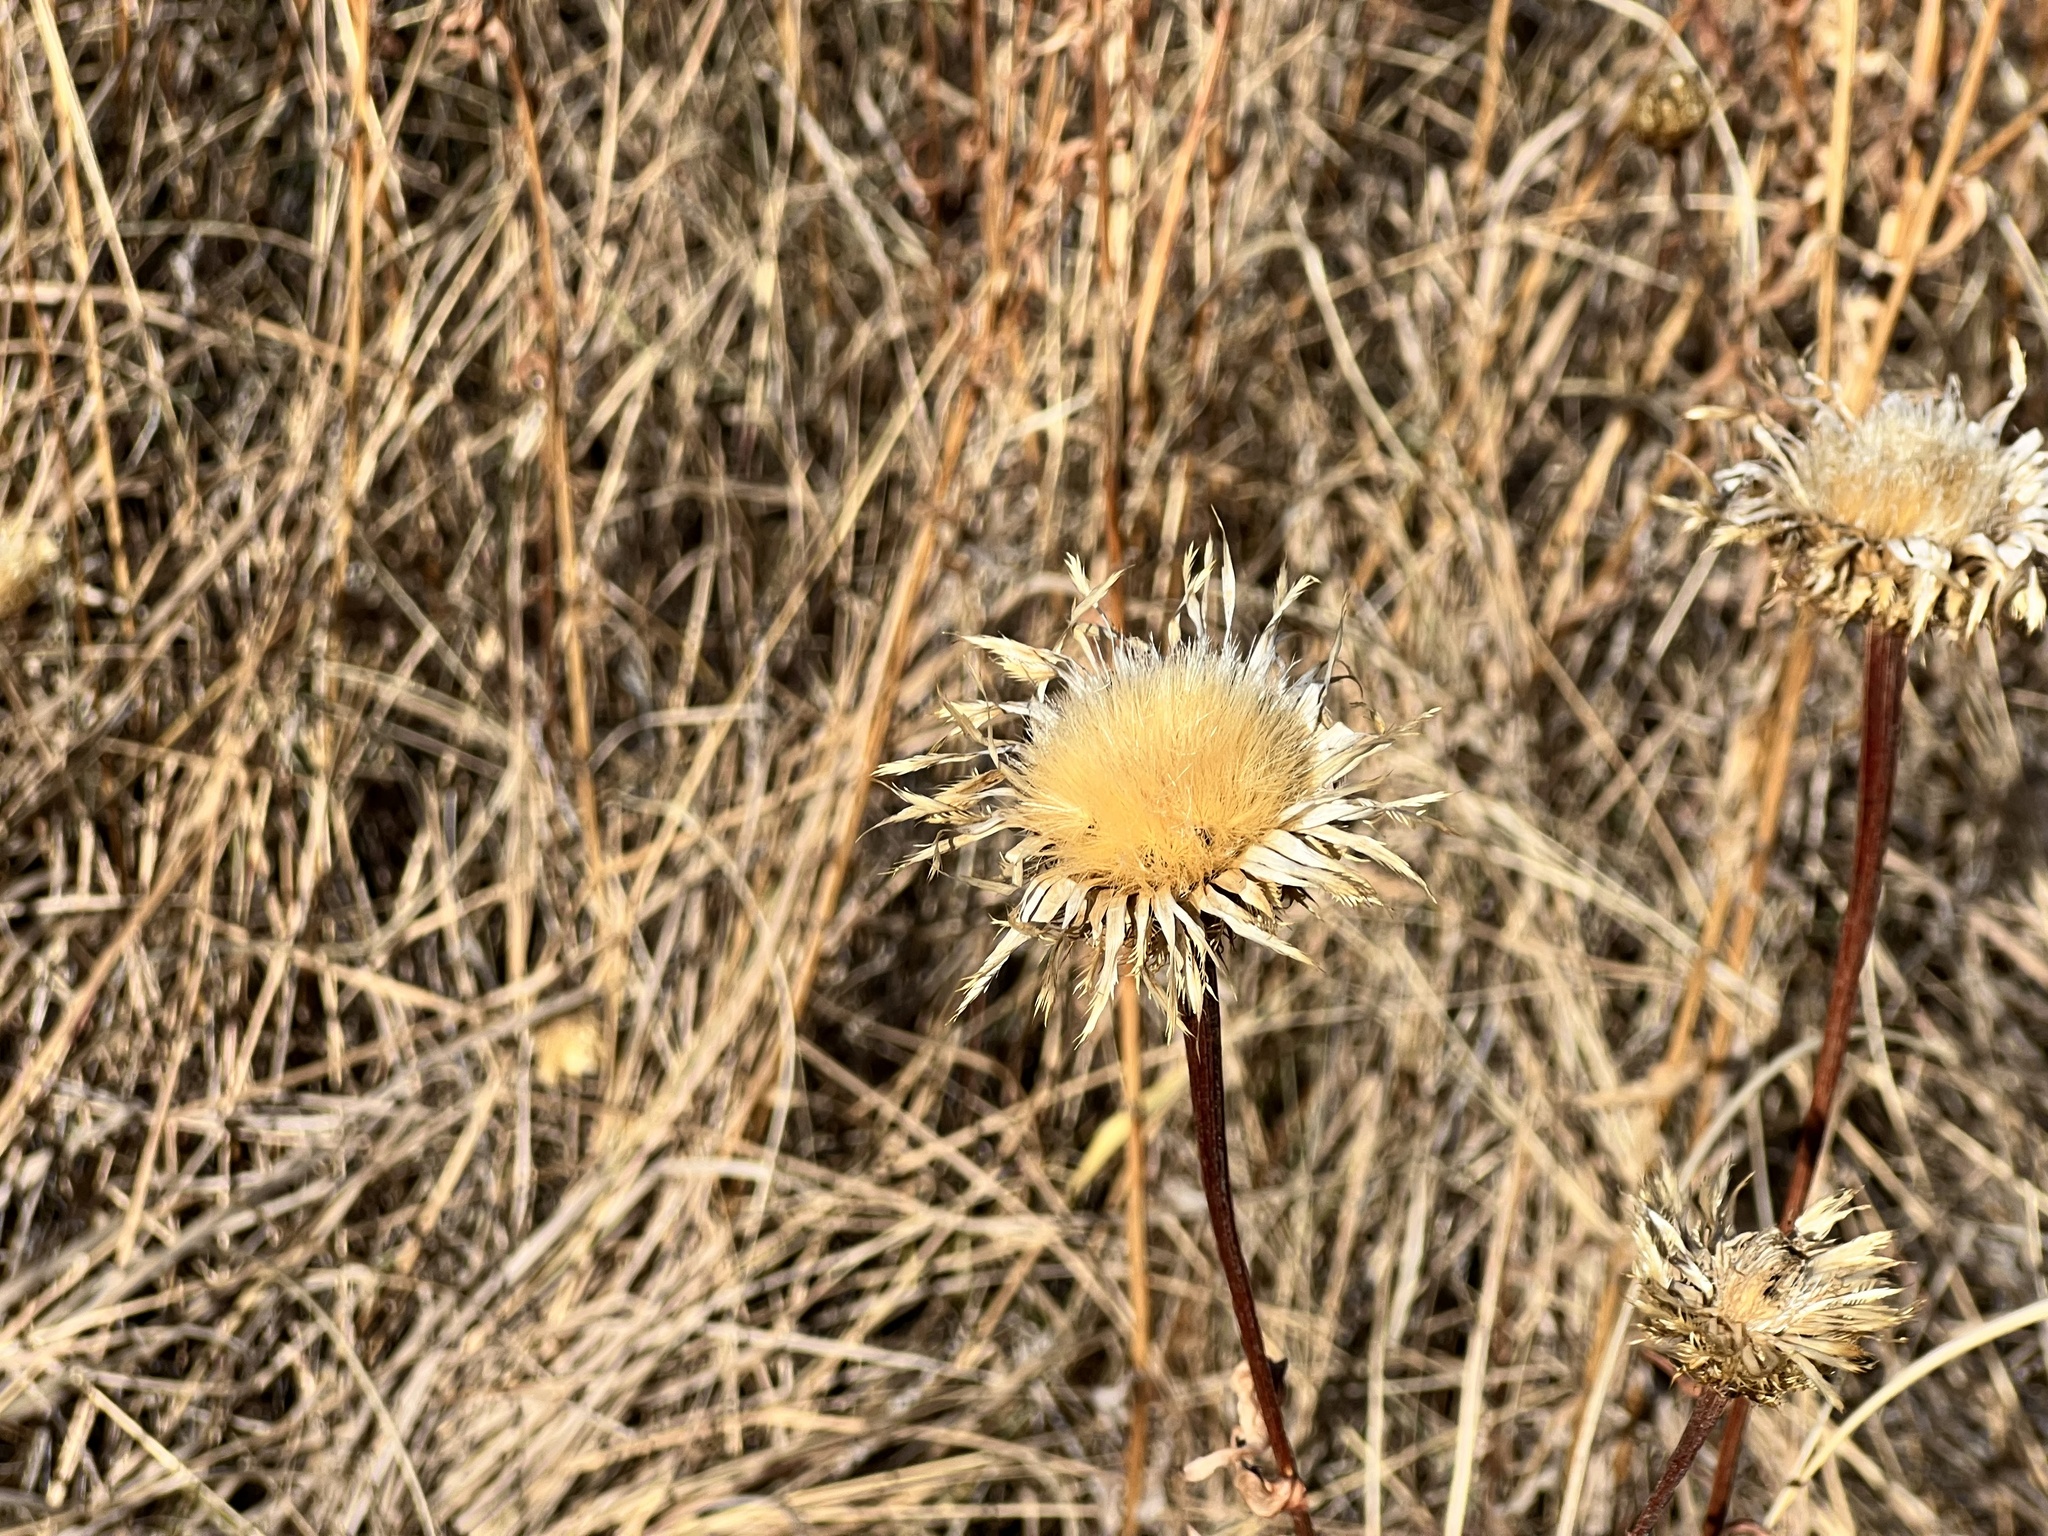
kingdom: Plantae
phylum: Tracheophyta
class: Magnoliopsida
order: Asterales
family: Asteraceae
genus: Plectocephalus
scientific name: Plectocephalus americanus
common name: American basket-flower
